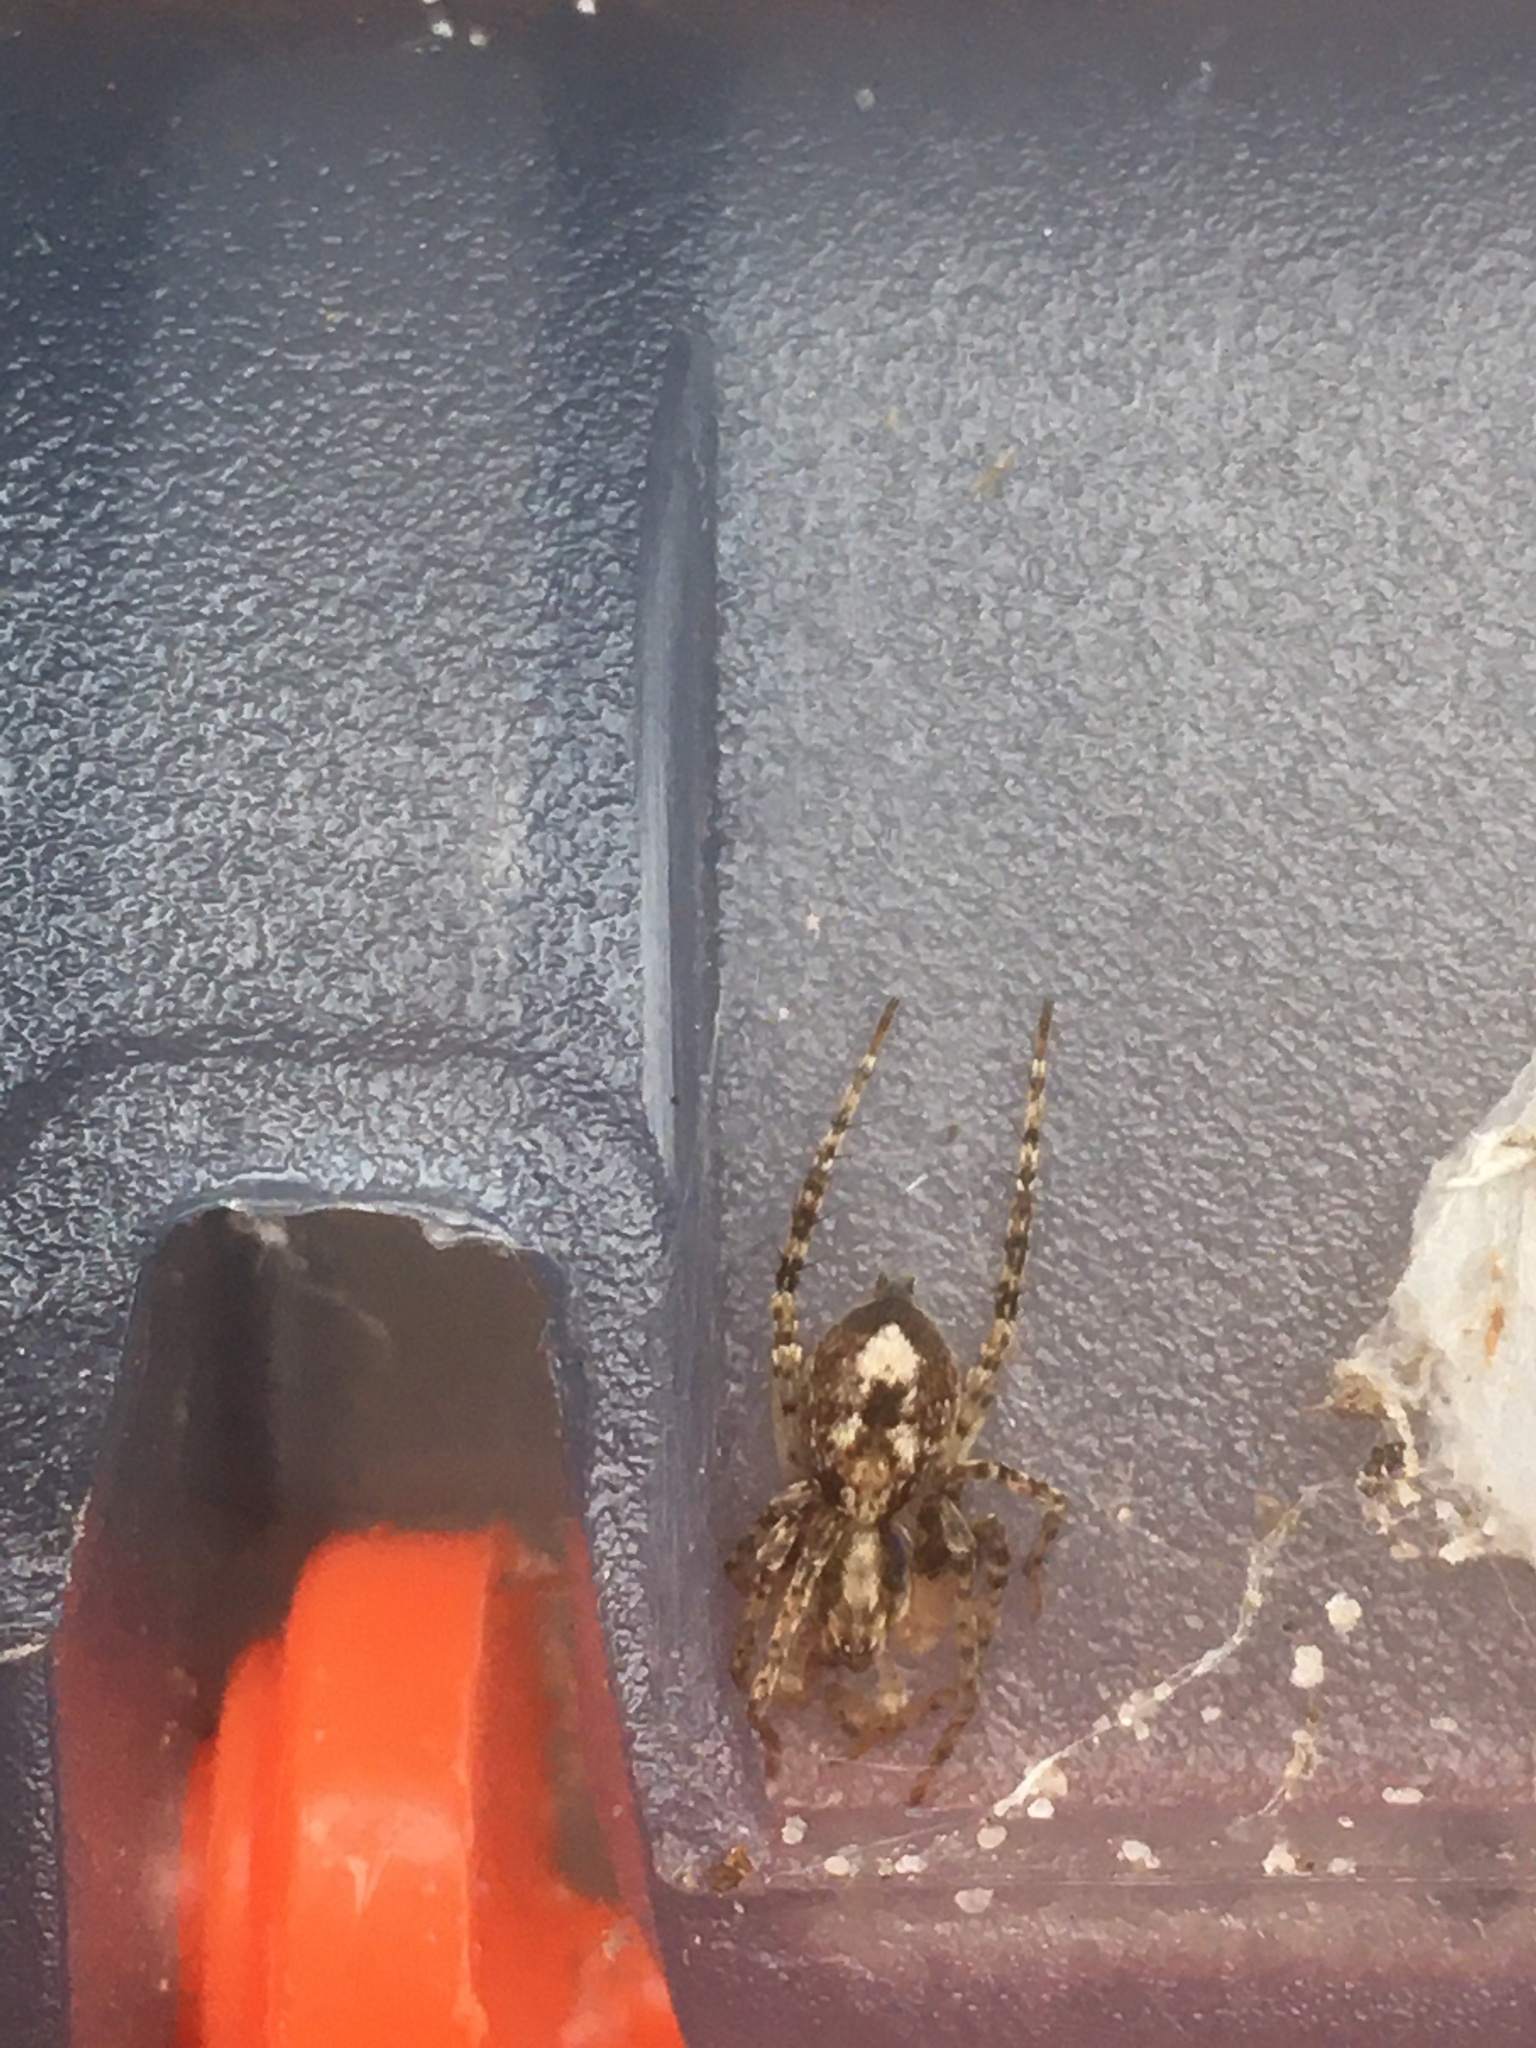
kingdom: Animalia
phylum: Arthropoda
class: Arachnida
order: Araneae
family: Anyphaenidae
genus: Anyphaena
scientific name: Anyphaena accentuata
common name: Buzzing spider
